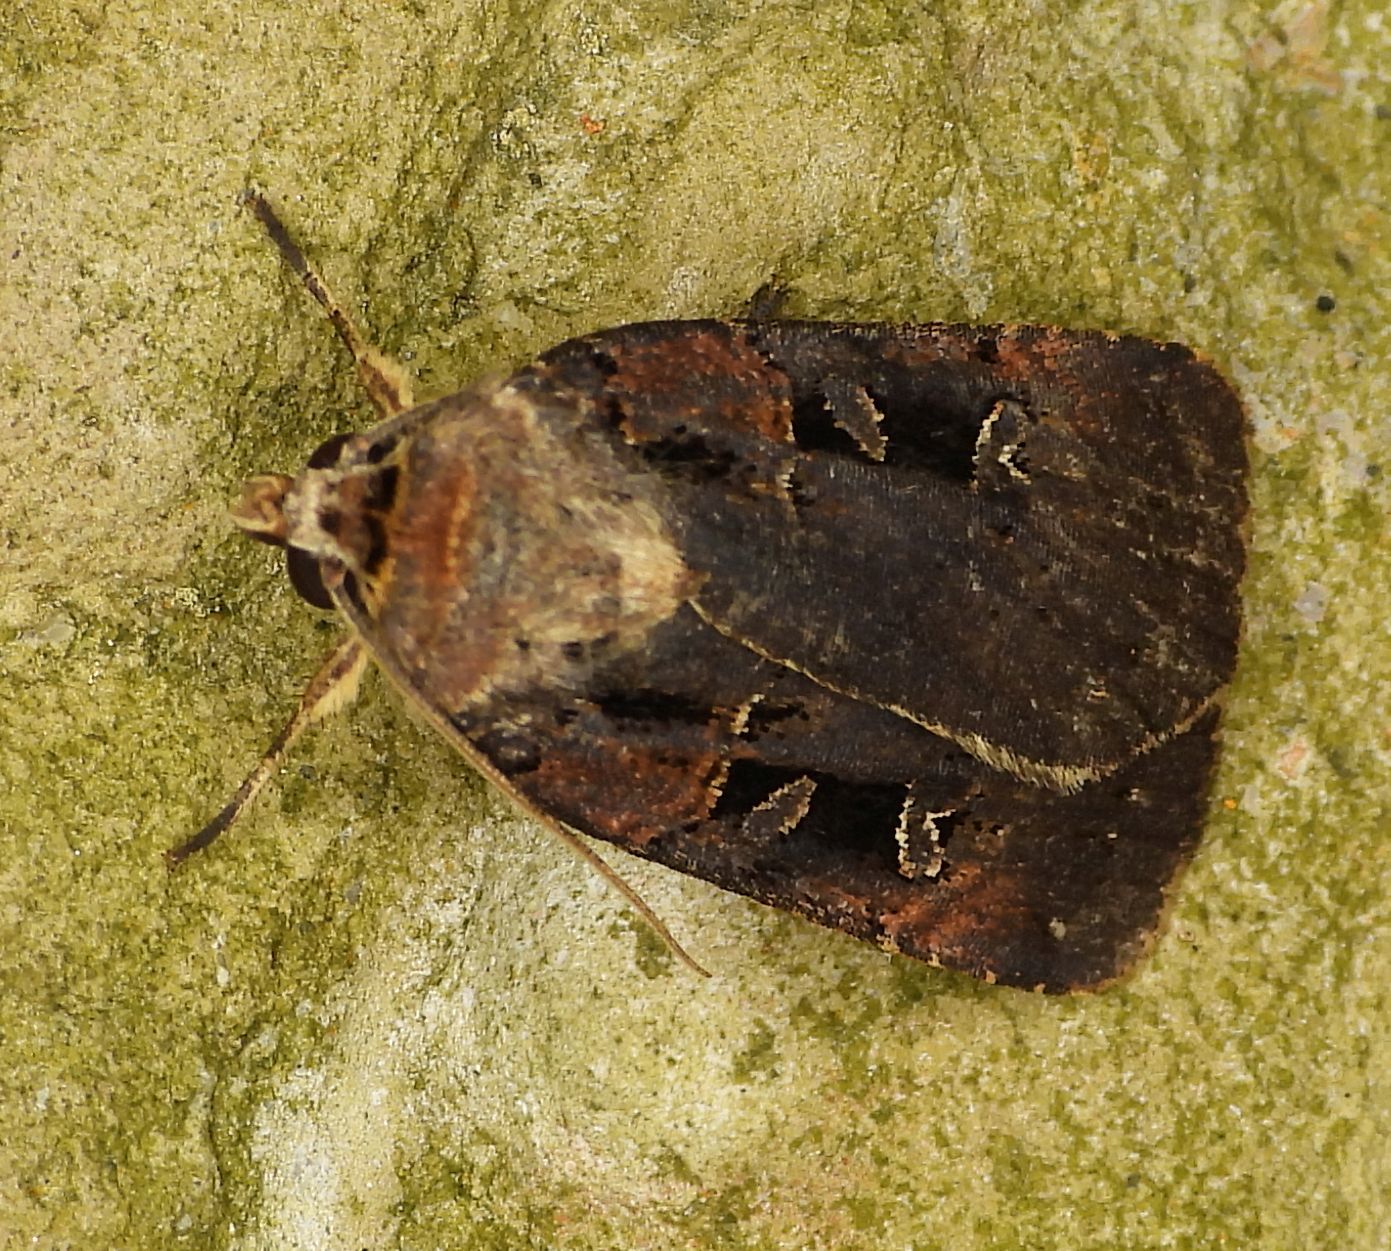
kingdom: Animalia
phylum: Arthropoda
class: Insecta
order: Lepidoptera
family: Noctuidae
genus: Pseudohermonassa
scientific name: Pseudohermonassa bicarnea
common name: Pink spotted dart
